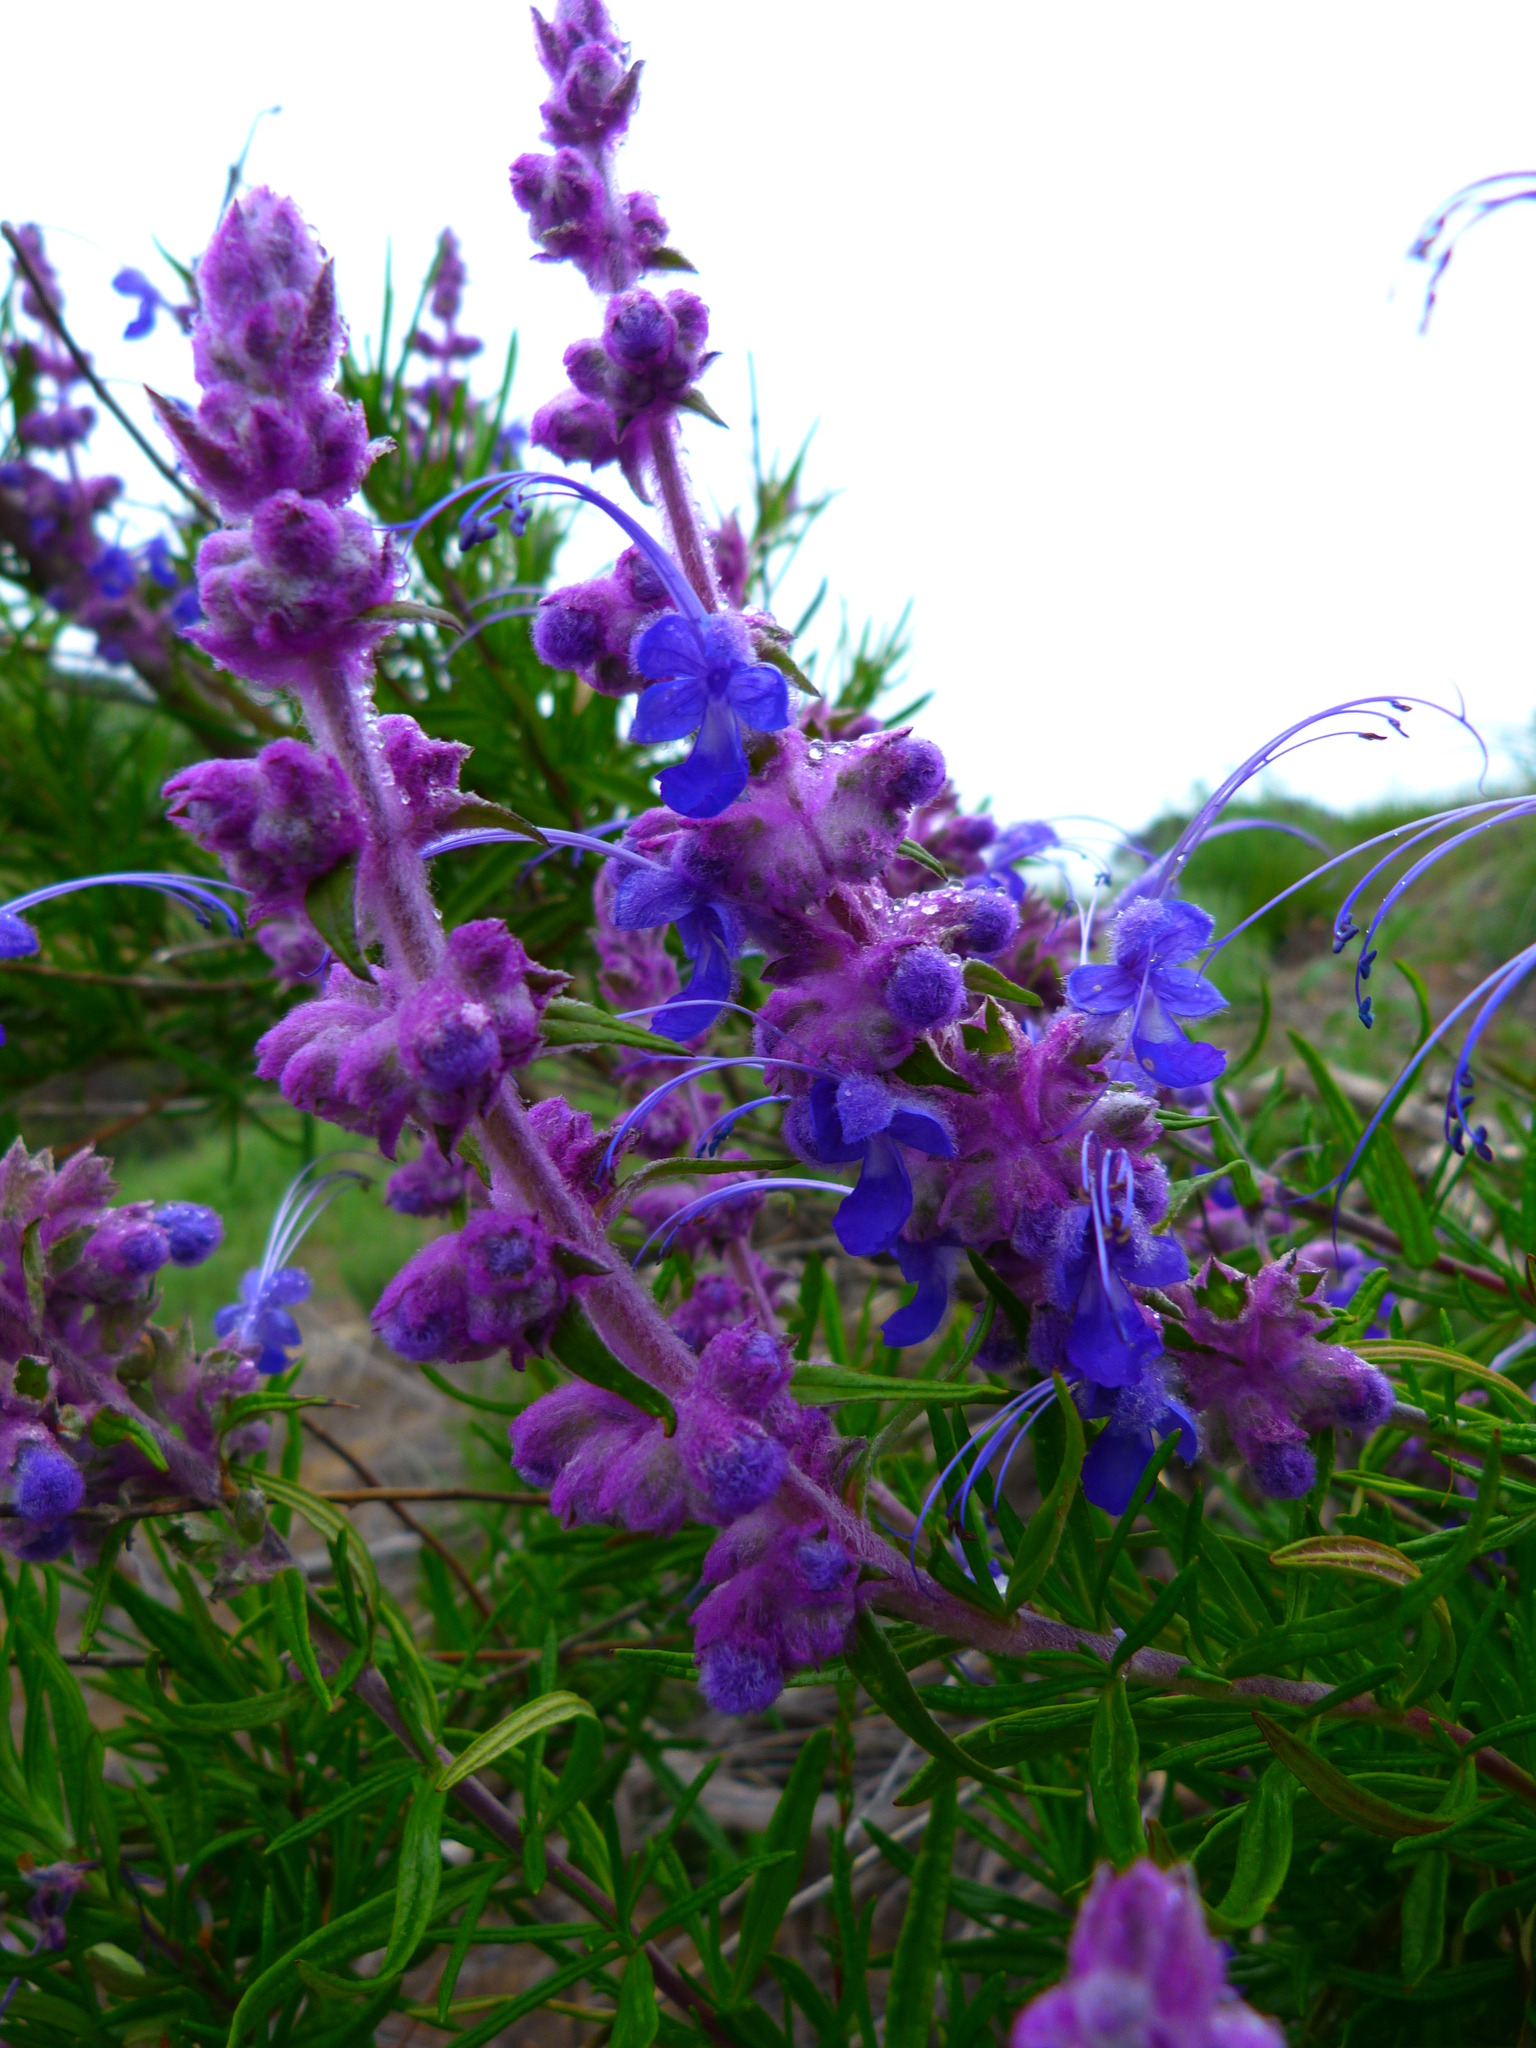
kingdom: Plantae
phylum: Tracheophyta
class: Magnoliopsida
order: Lamiales
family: Lamiaceae
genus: Trichostema
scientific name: Trichostema lanatum
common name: Woolly bluecurls
